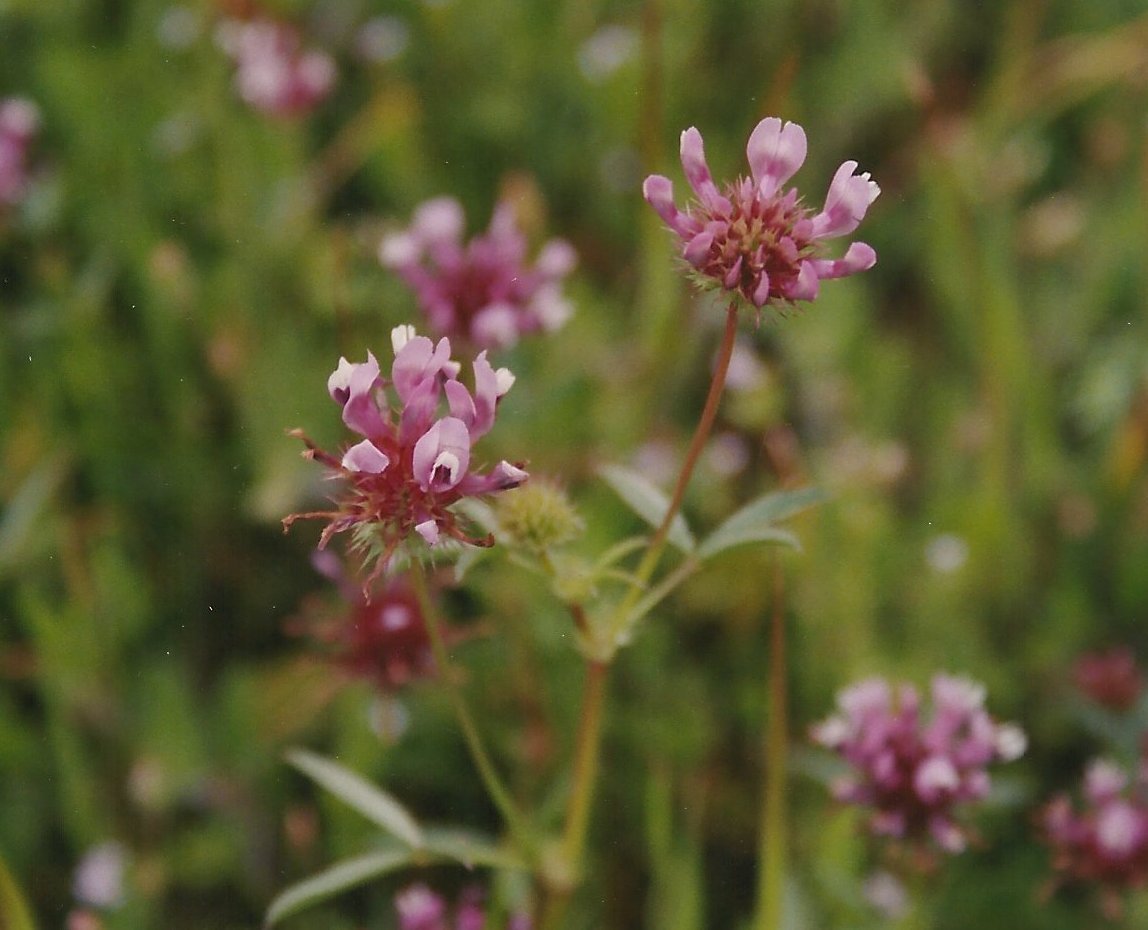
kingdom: Plantae
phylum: Tracheophyta
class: Magnoliopsida
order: Fabales
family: Fabaceae
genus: Trifolium
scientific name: Trifolium willdenovii
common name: Tomcat clover
